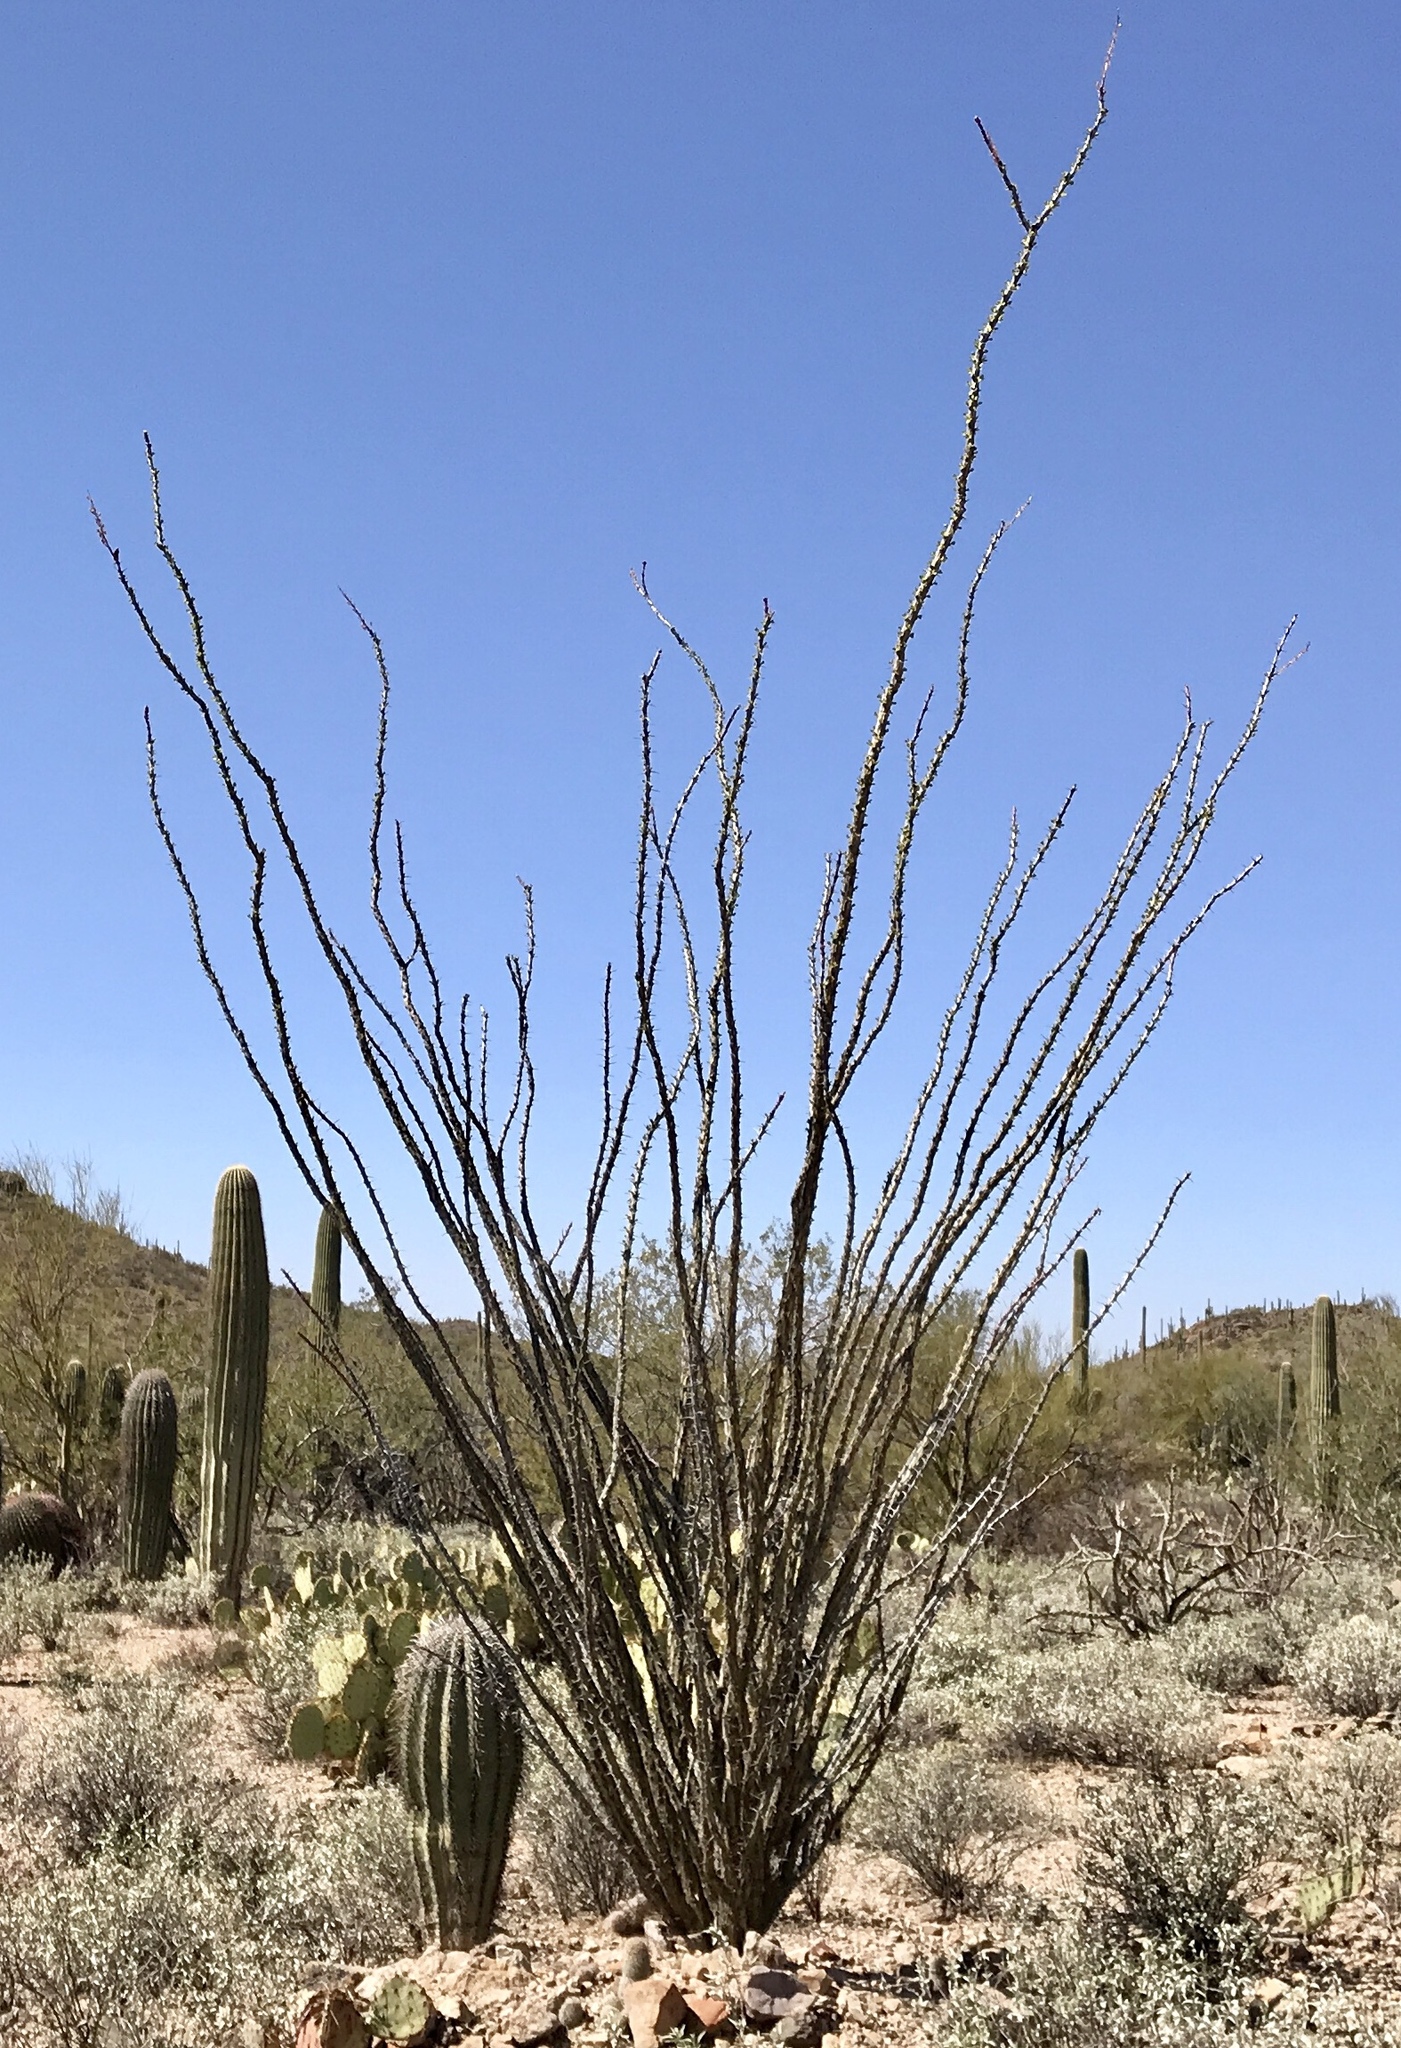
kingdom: Plantae
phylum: Tracheophyta
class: Magnoliopsida
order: Ericales
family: Fouquieriaceae
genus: Fouquieria
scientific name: Fouquieria splendens
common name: Vine-cactus
